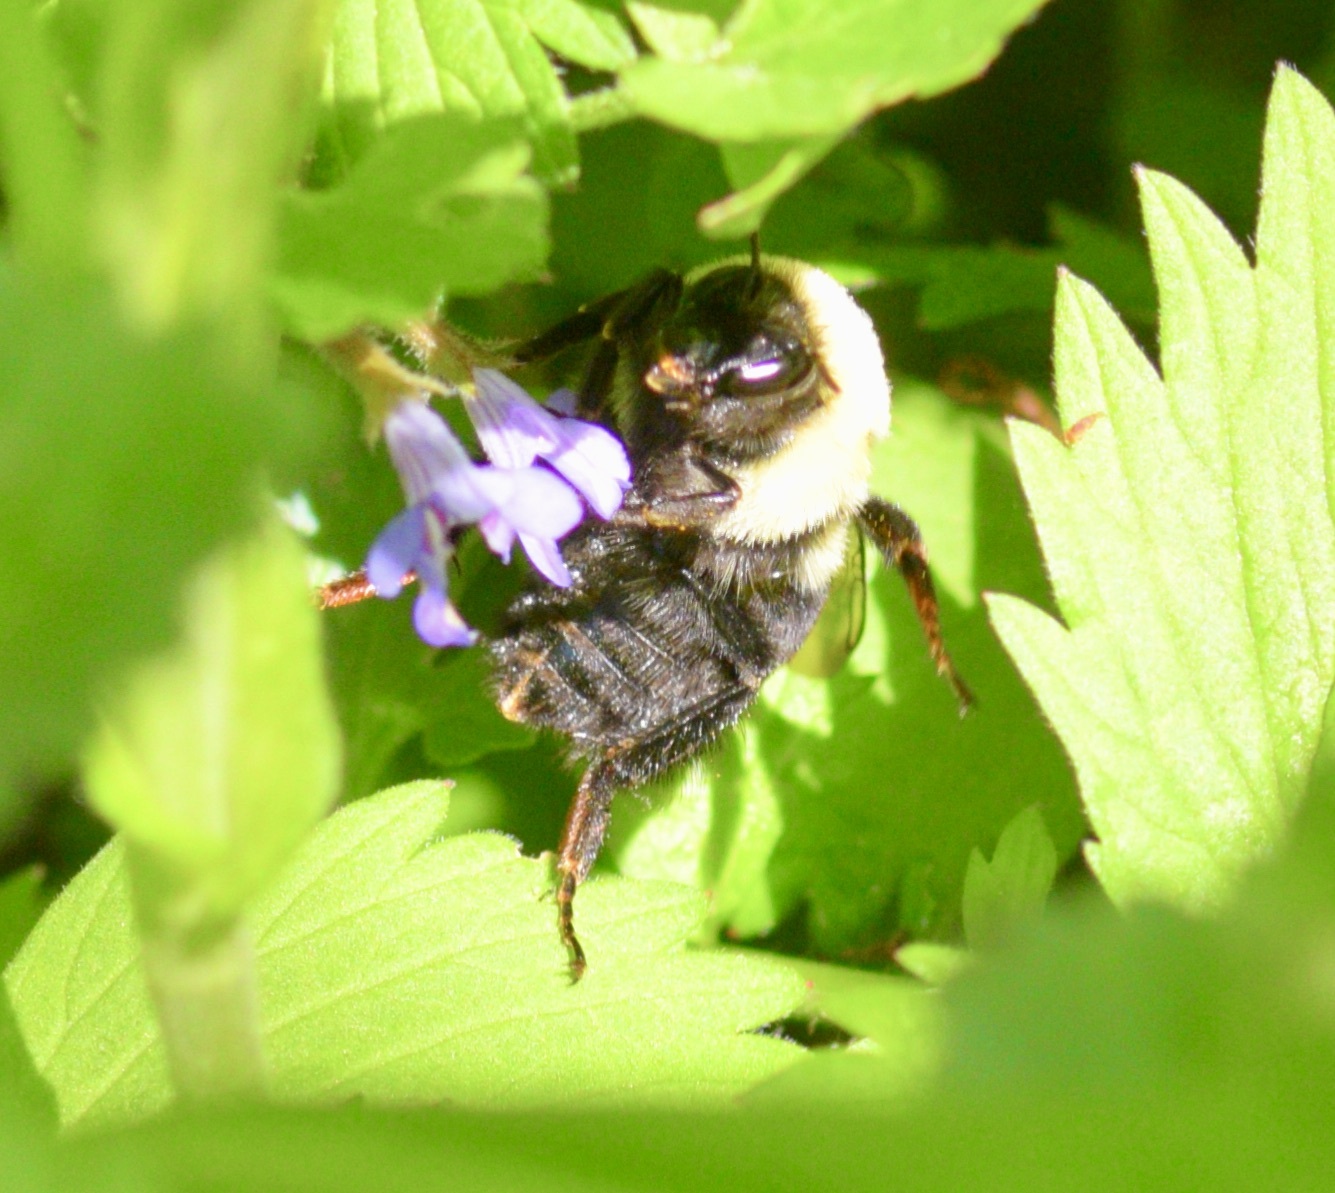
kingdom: Animalia
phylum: Arthropoda
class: Insecta
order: Hymenoptera
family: Apidae
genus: Bombus
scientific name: Bombus impatiens
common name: Common eastern bumble bee
